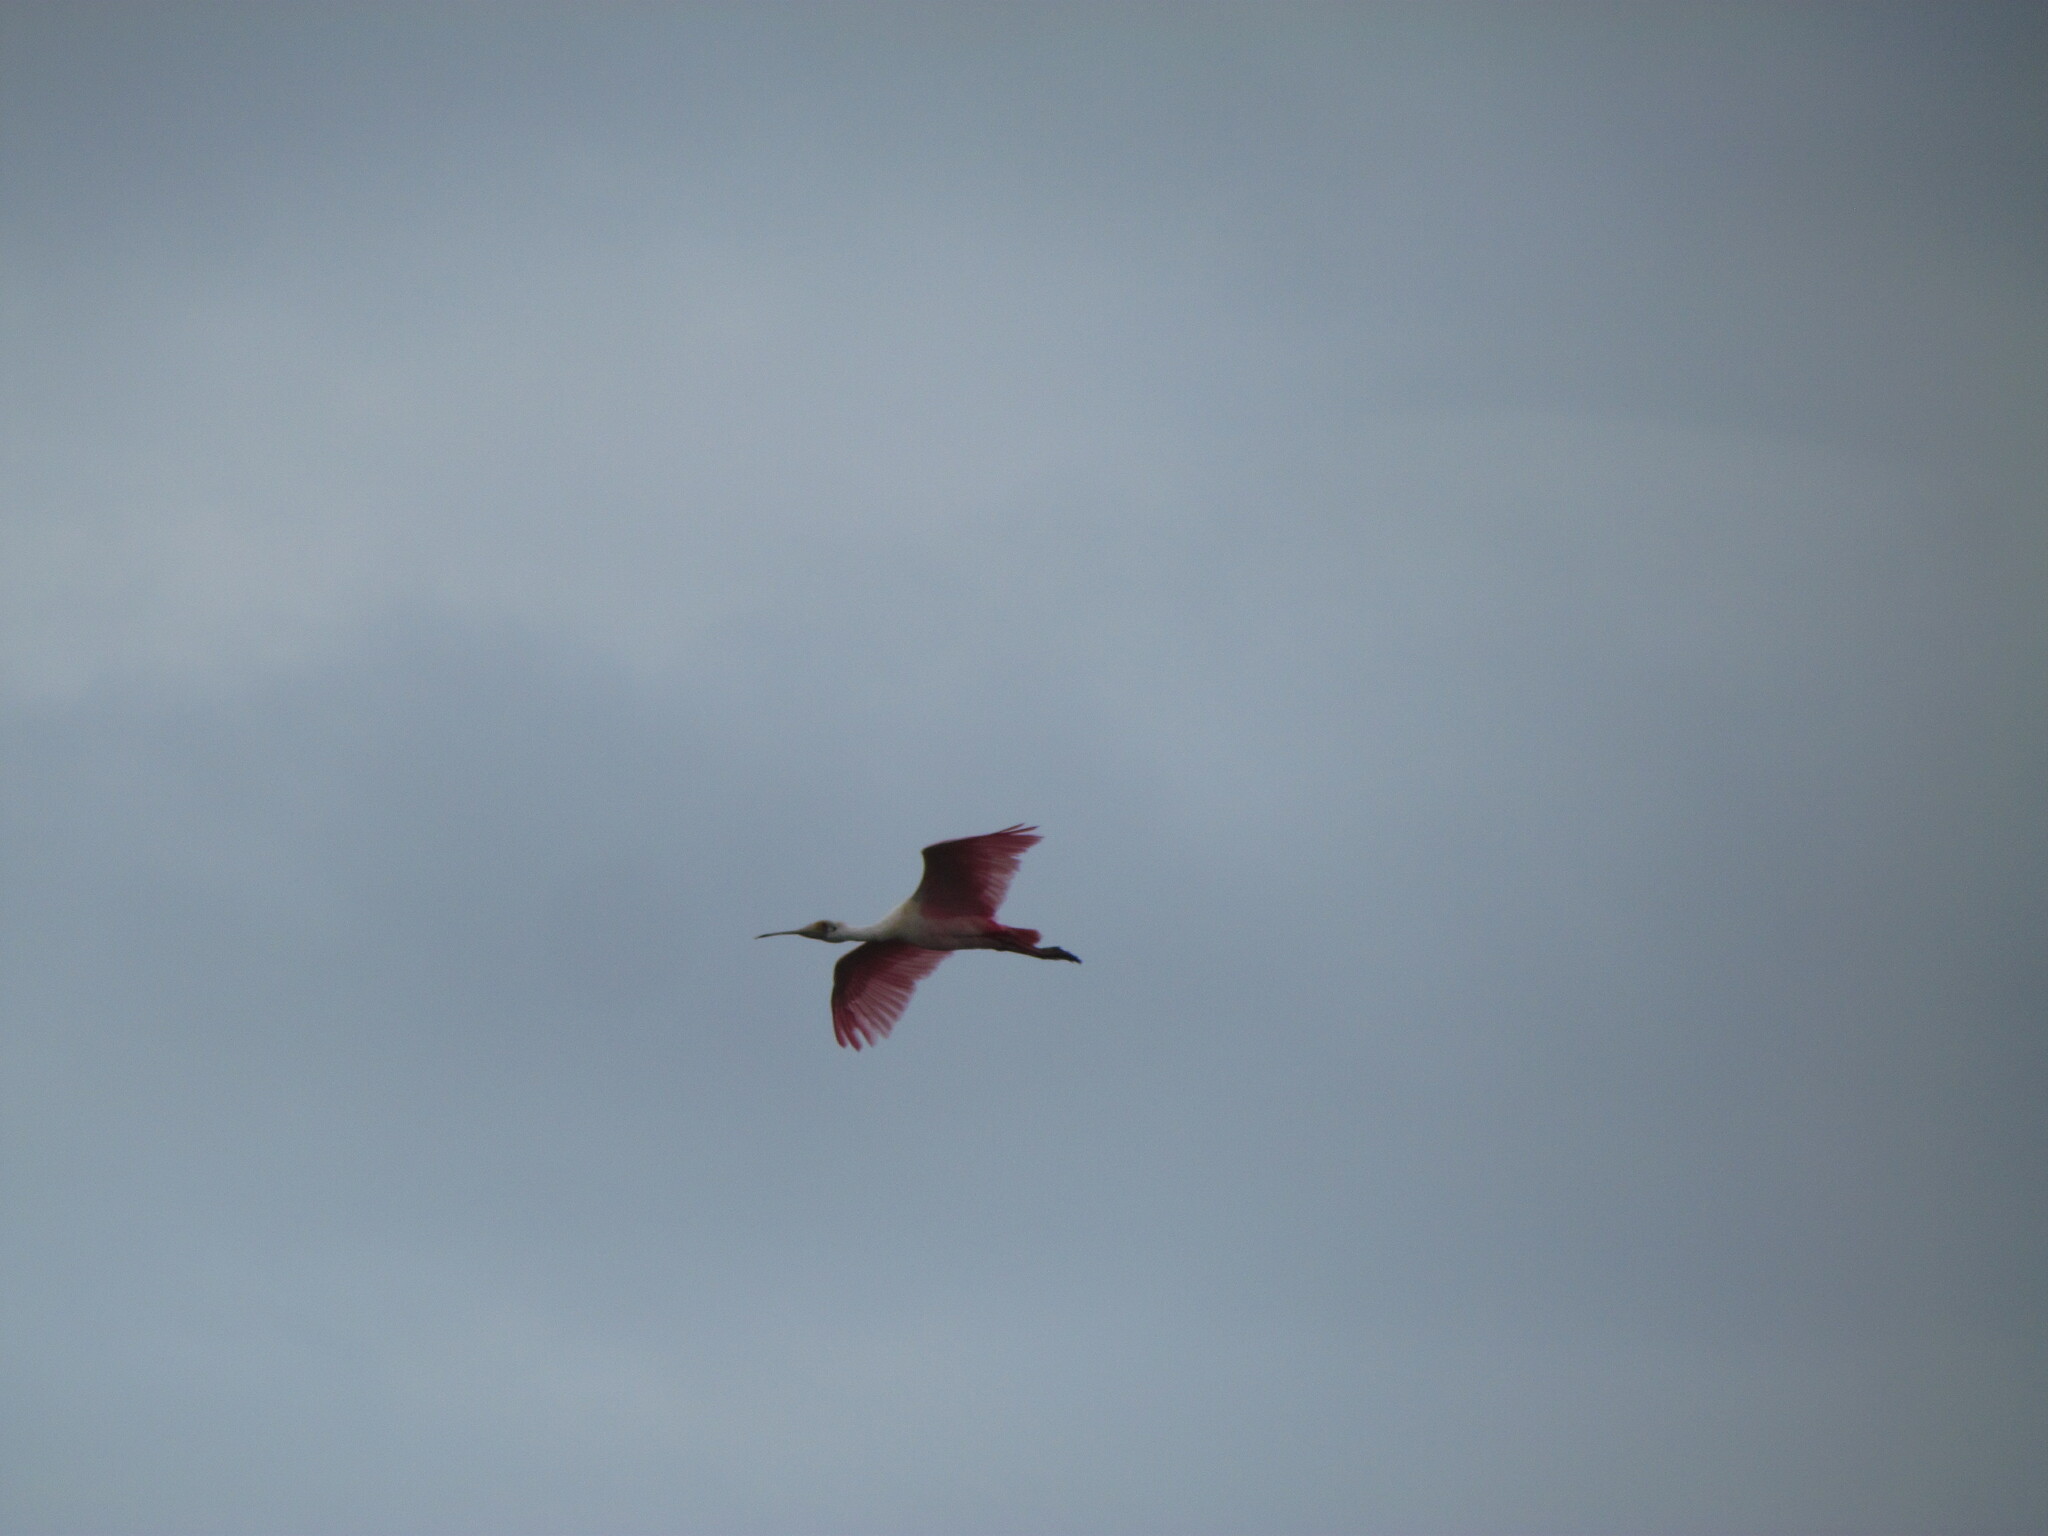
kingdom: Animalia
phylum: Chordata
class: Aves
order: Pelecaniformes
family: Threskiornithidae
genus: Platalea
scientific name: Platalea ajaja
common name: Roseate spoonbill
